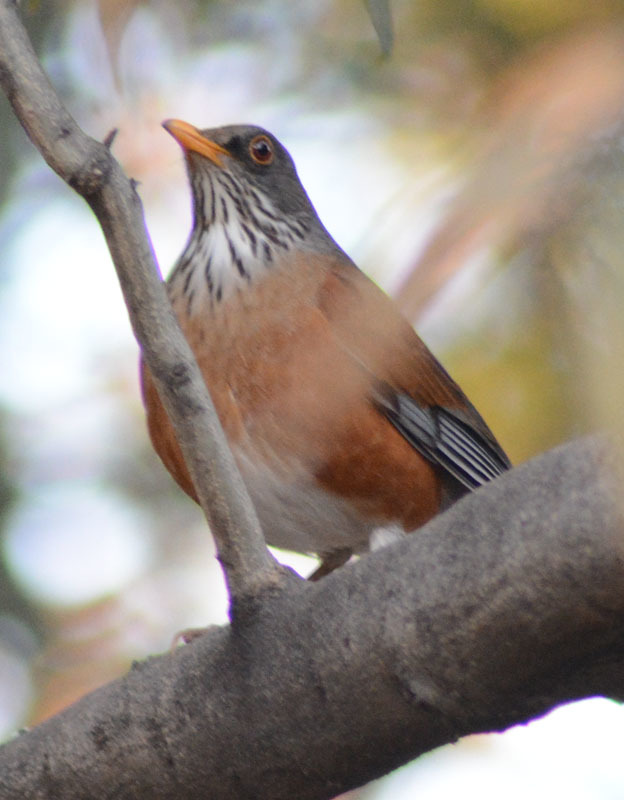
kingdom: Animalia
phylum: Chordata
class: Aves
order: Passeriformes
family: Turdidae
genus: Turdus
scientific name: Turdus rufopalliatus
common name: Rufous-backed robin
